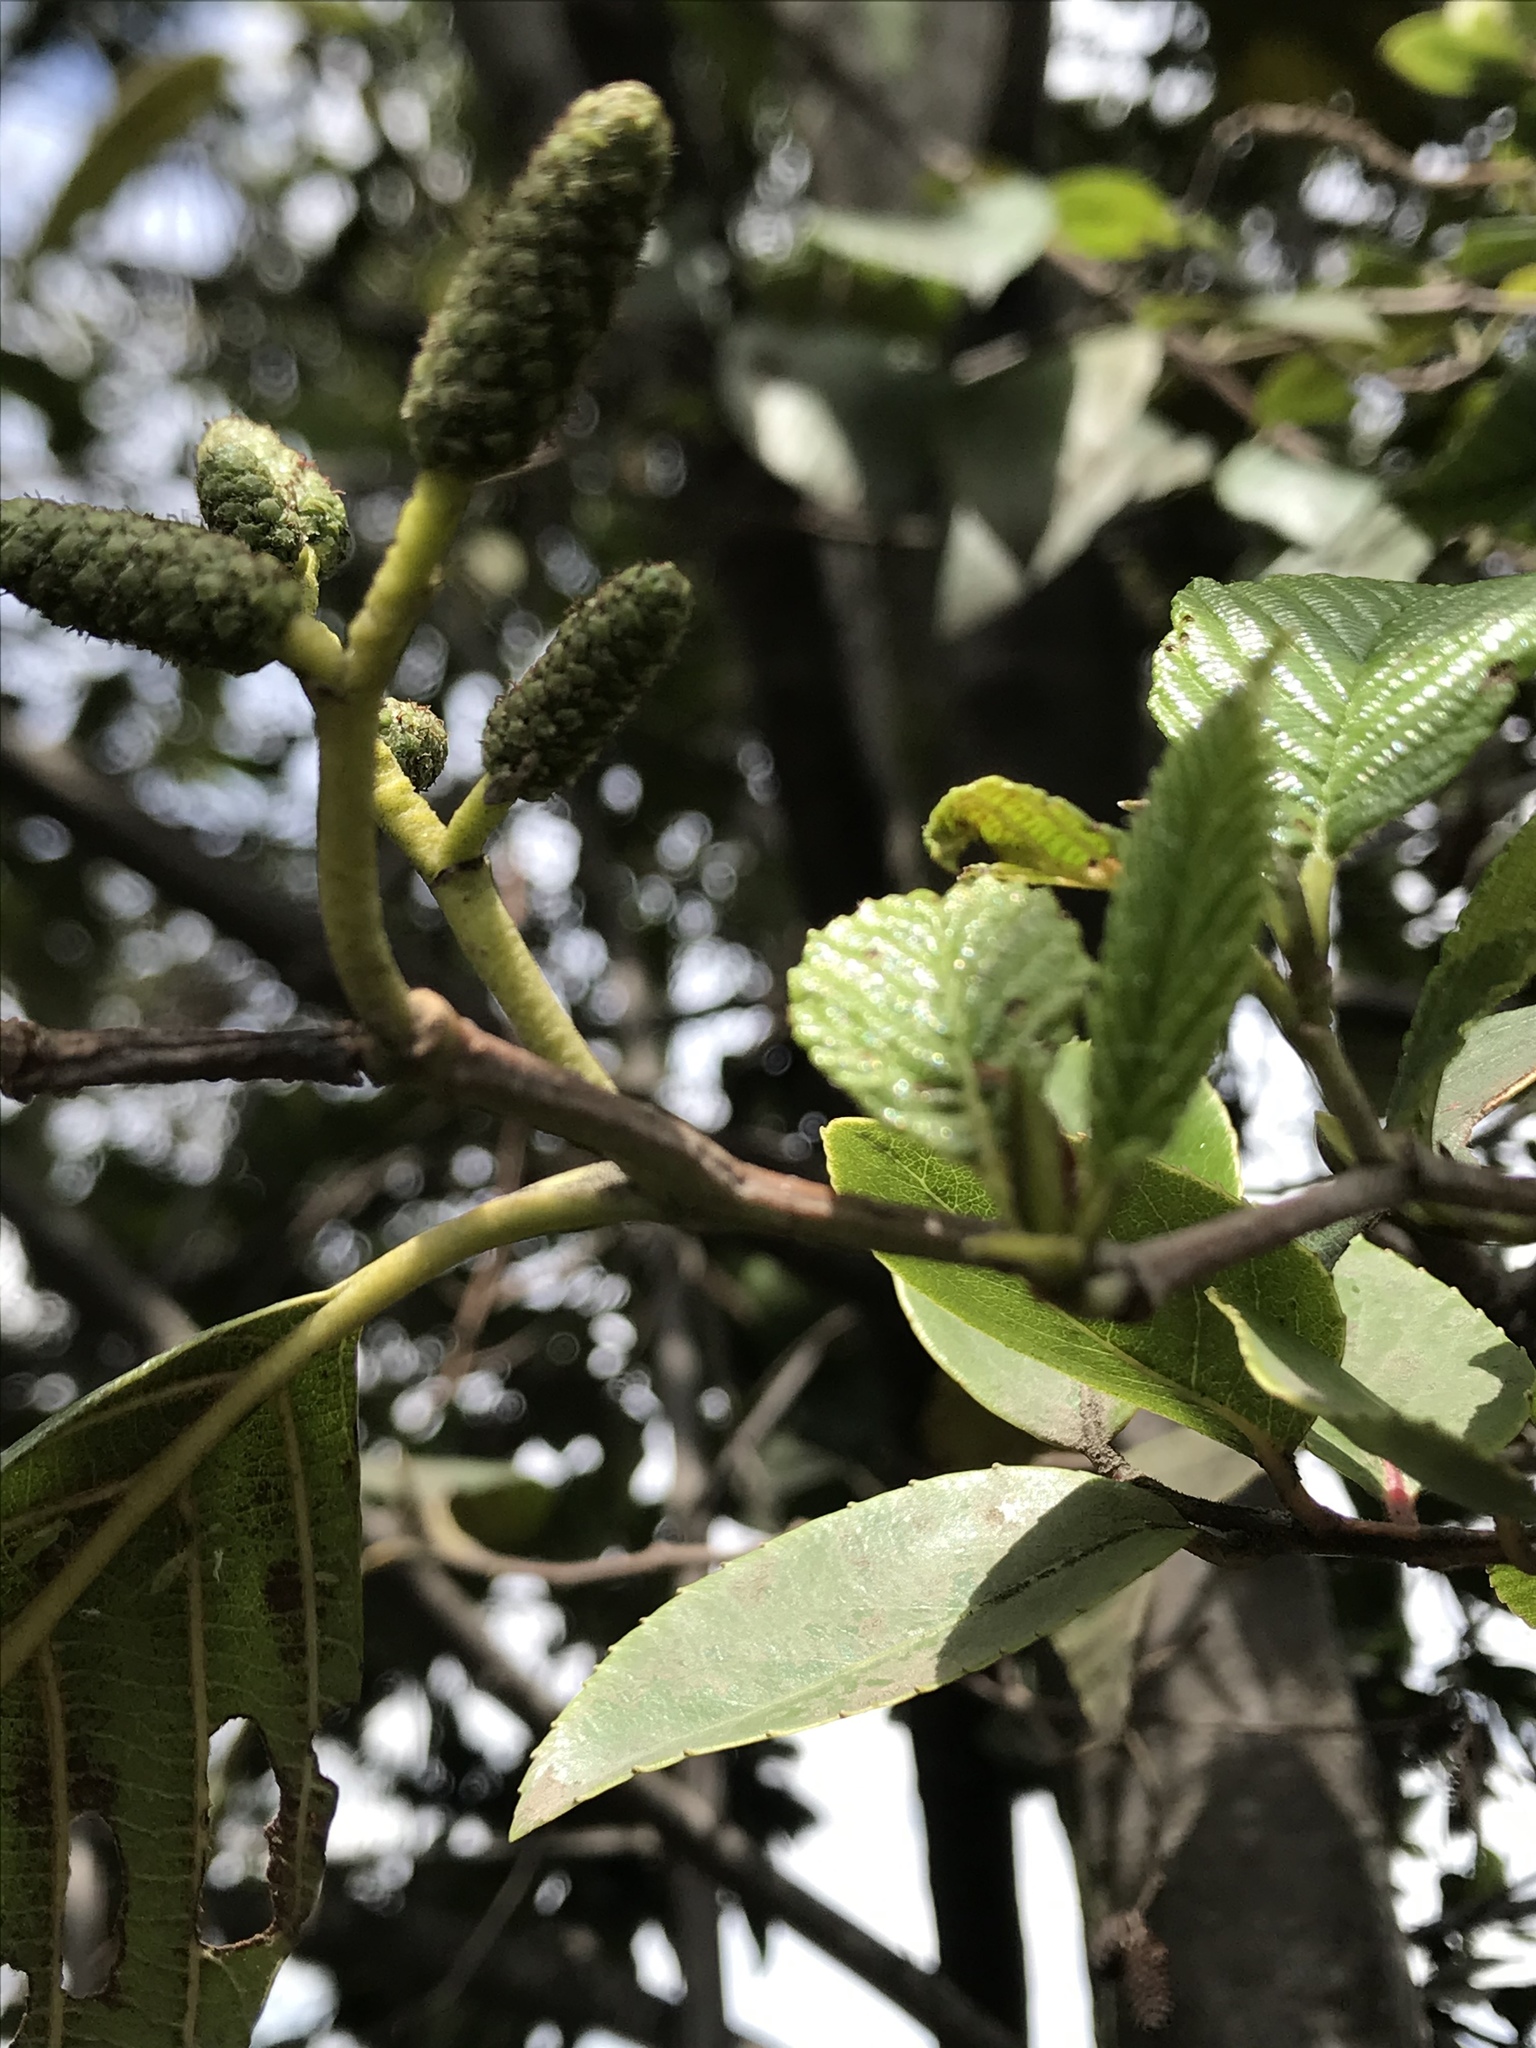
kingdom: Plantae
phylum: Tracheophyta
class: Magnoliopsida
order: Fagales
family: Betulaceae
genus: Alnus
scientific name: Alnus acuminata
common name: Alder
